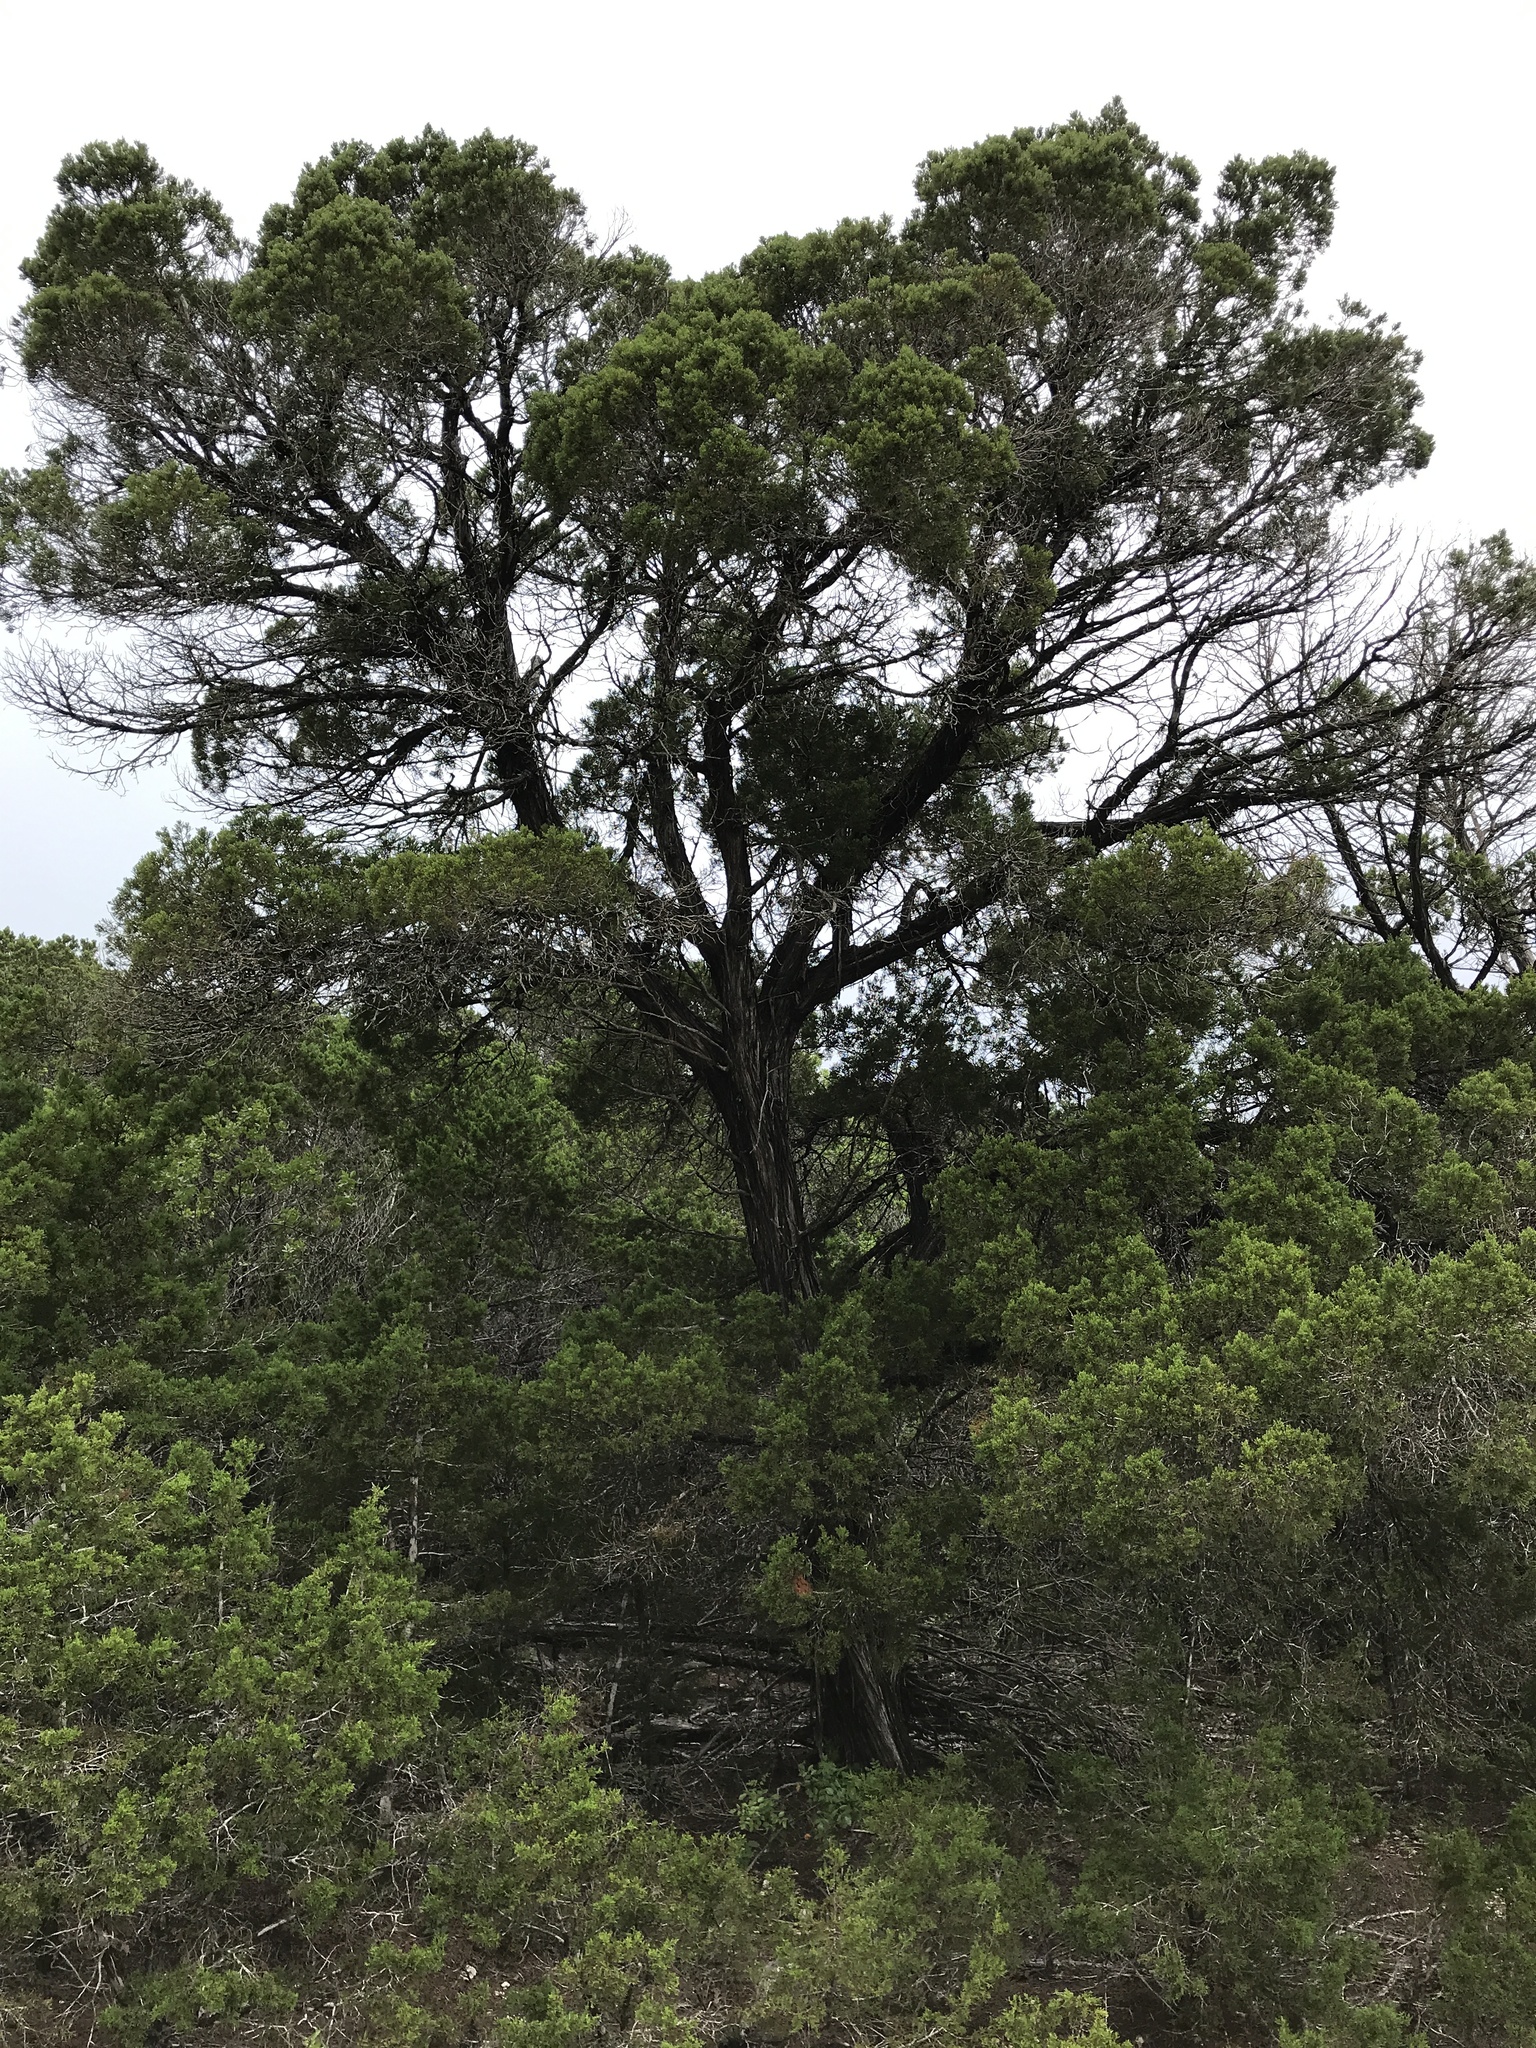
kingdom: Plantae
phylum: Tracheophyta
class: Pinopsida
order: Pinales
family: Cupressaceae
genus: Juniperus
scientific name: Juniperus ashei
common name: Mexican juniper
